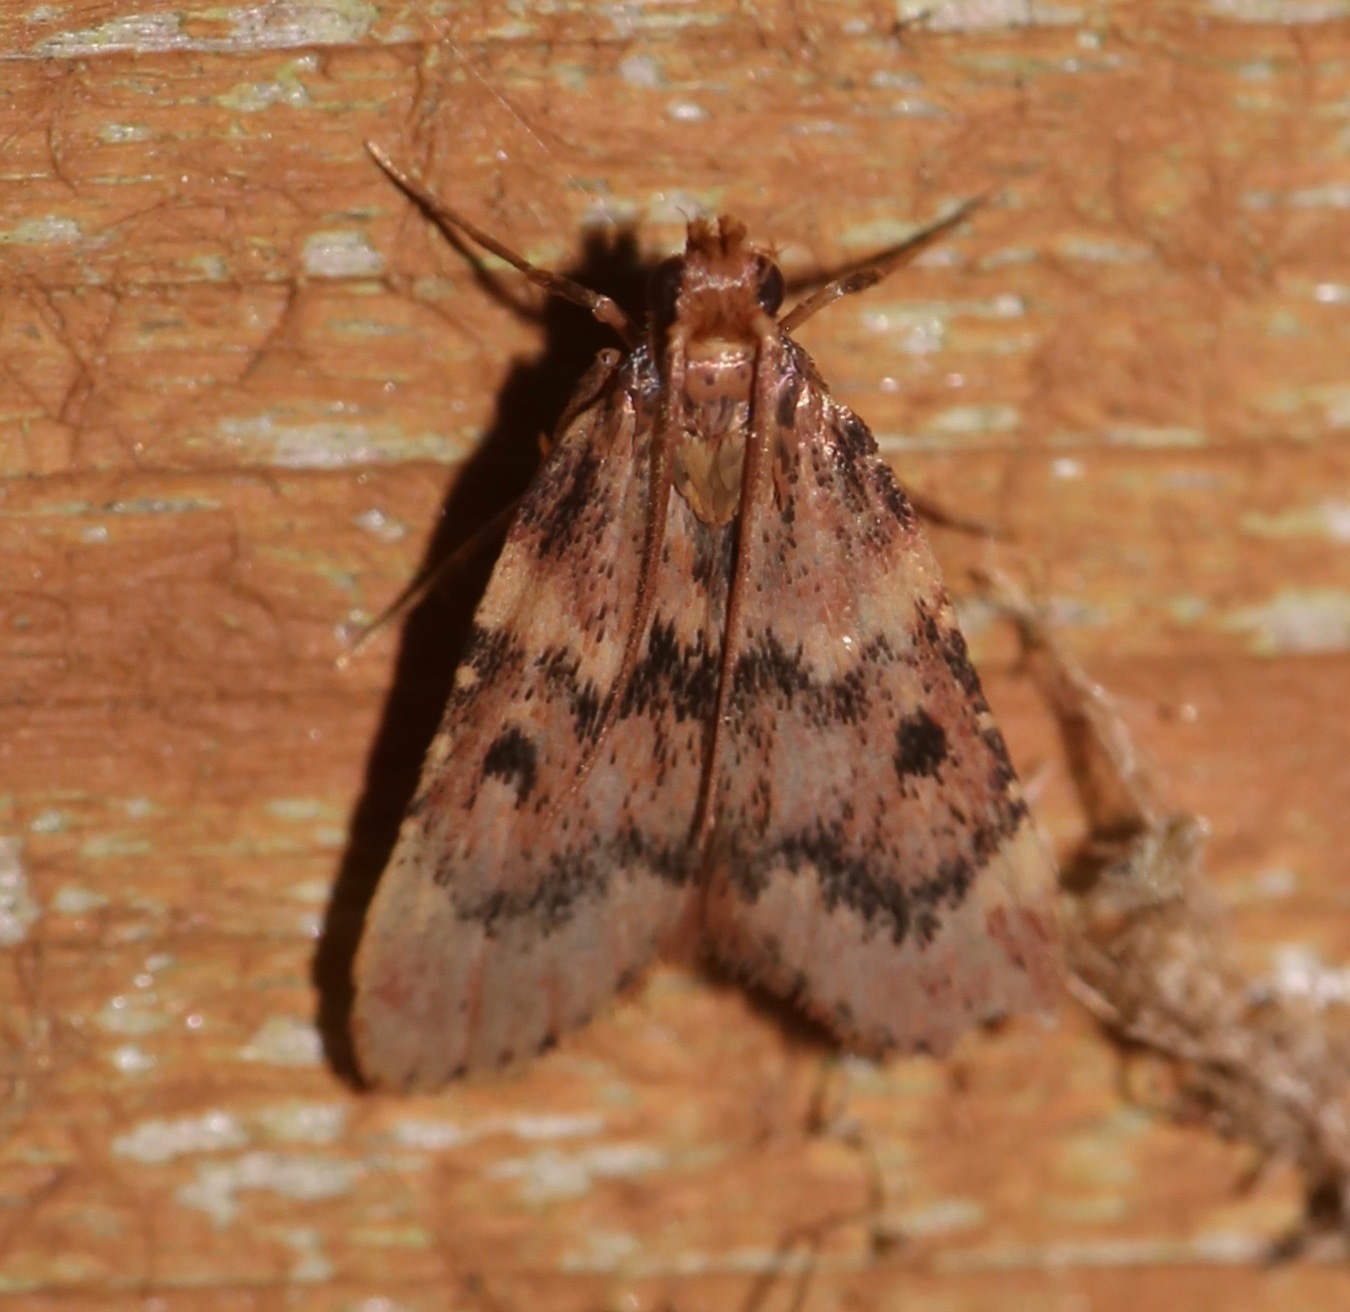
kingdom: Animalia
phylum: Arthropoda
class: Insecta
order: Lepidoptera
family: Pyralidae
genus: Aglossa
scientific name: Aglossa disciferalis
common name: Pink-masked pyralid moth
